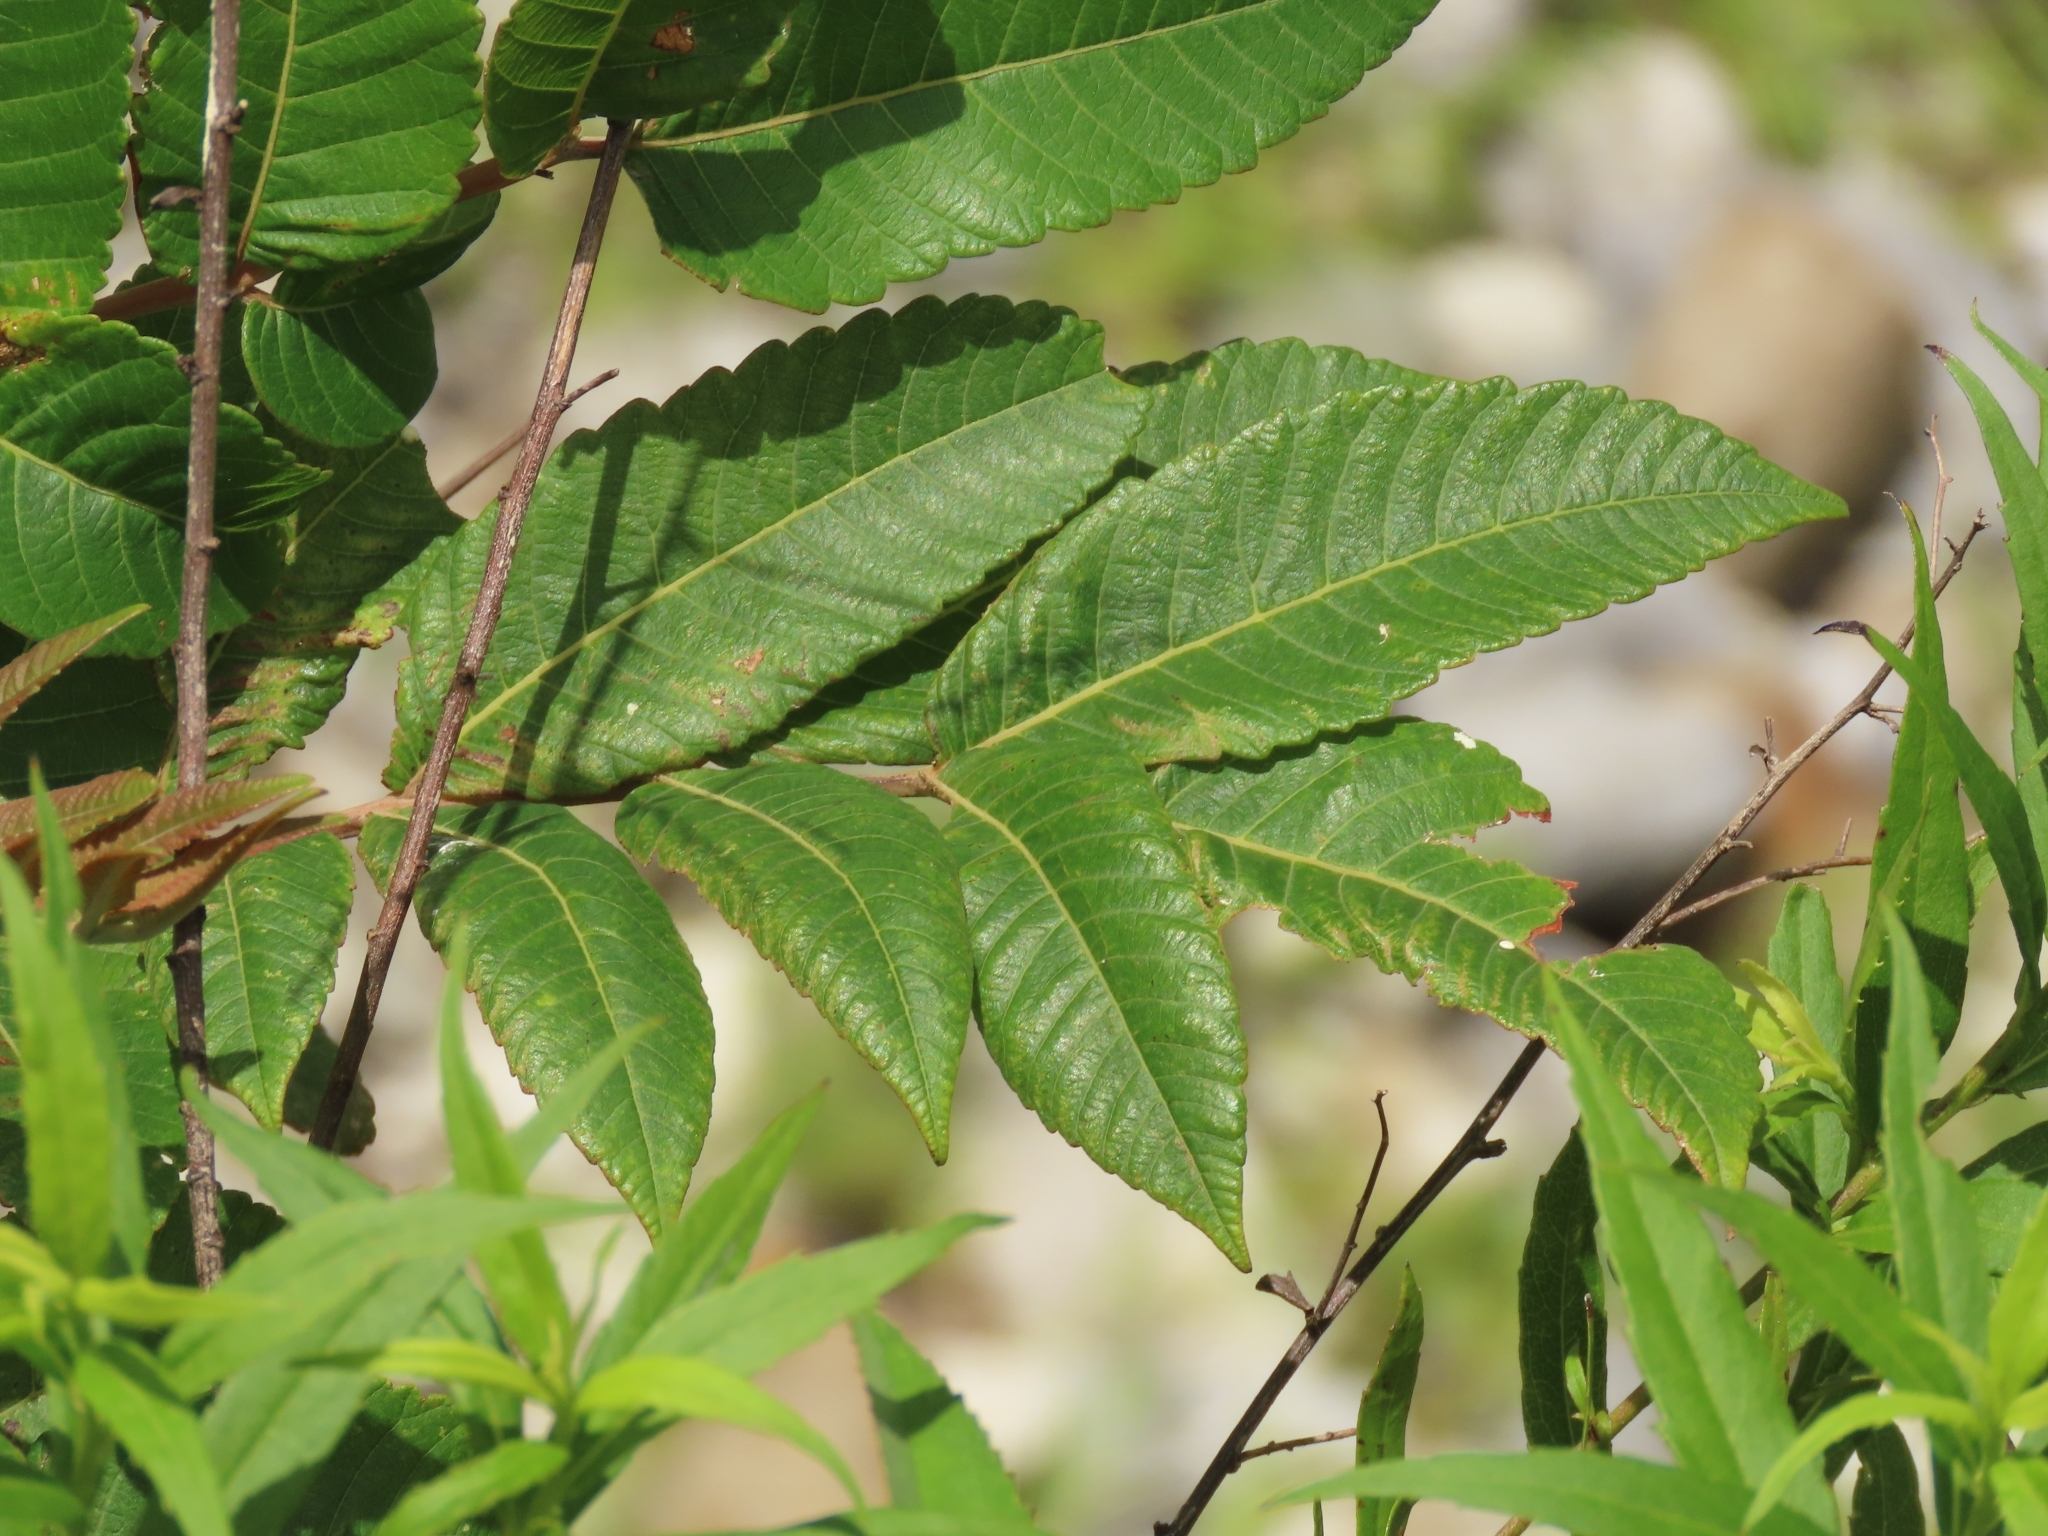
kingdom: Plantae
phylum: Tracheophyta
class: Magnoliopsida
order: Sapindales
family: Anacardiaceae
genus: Rhus
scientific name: Rhus chinensis
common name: Chinese gall
